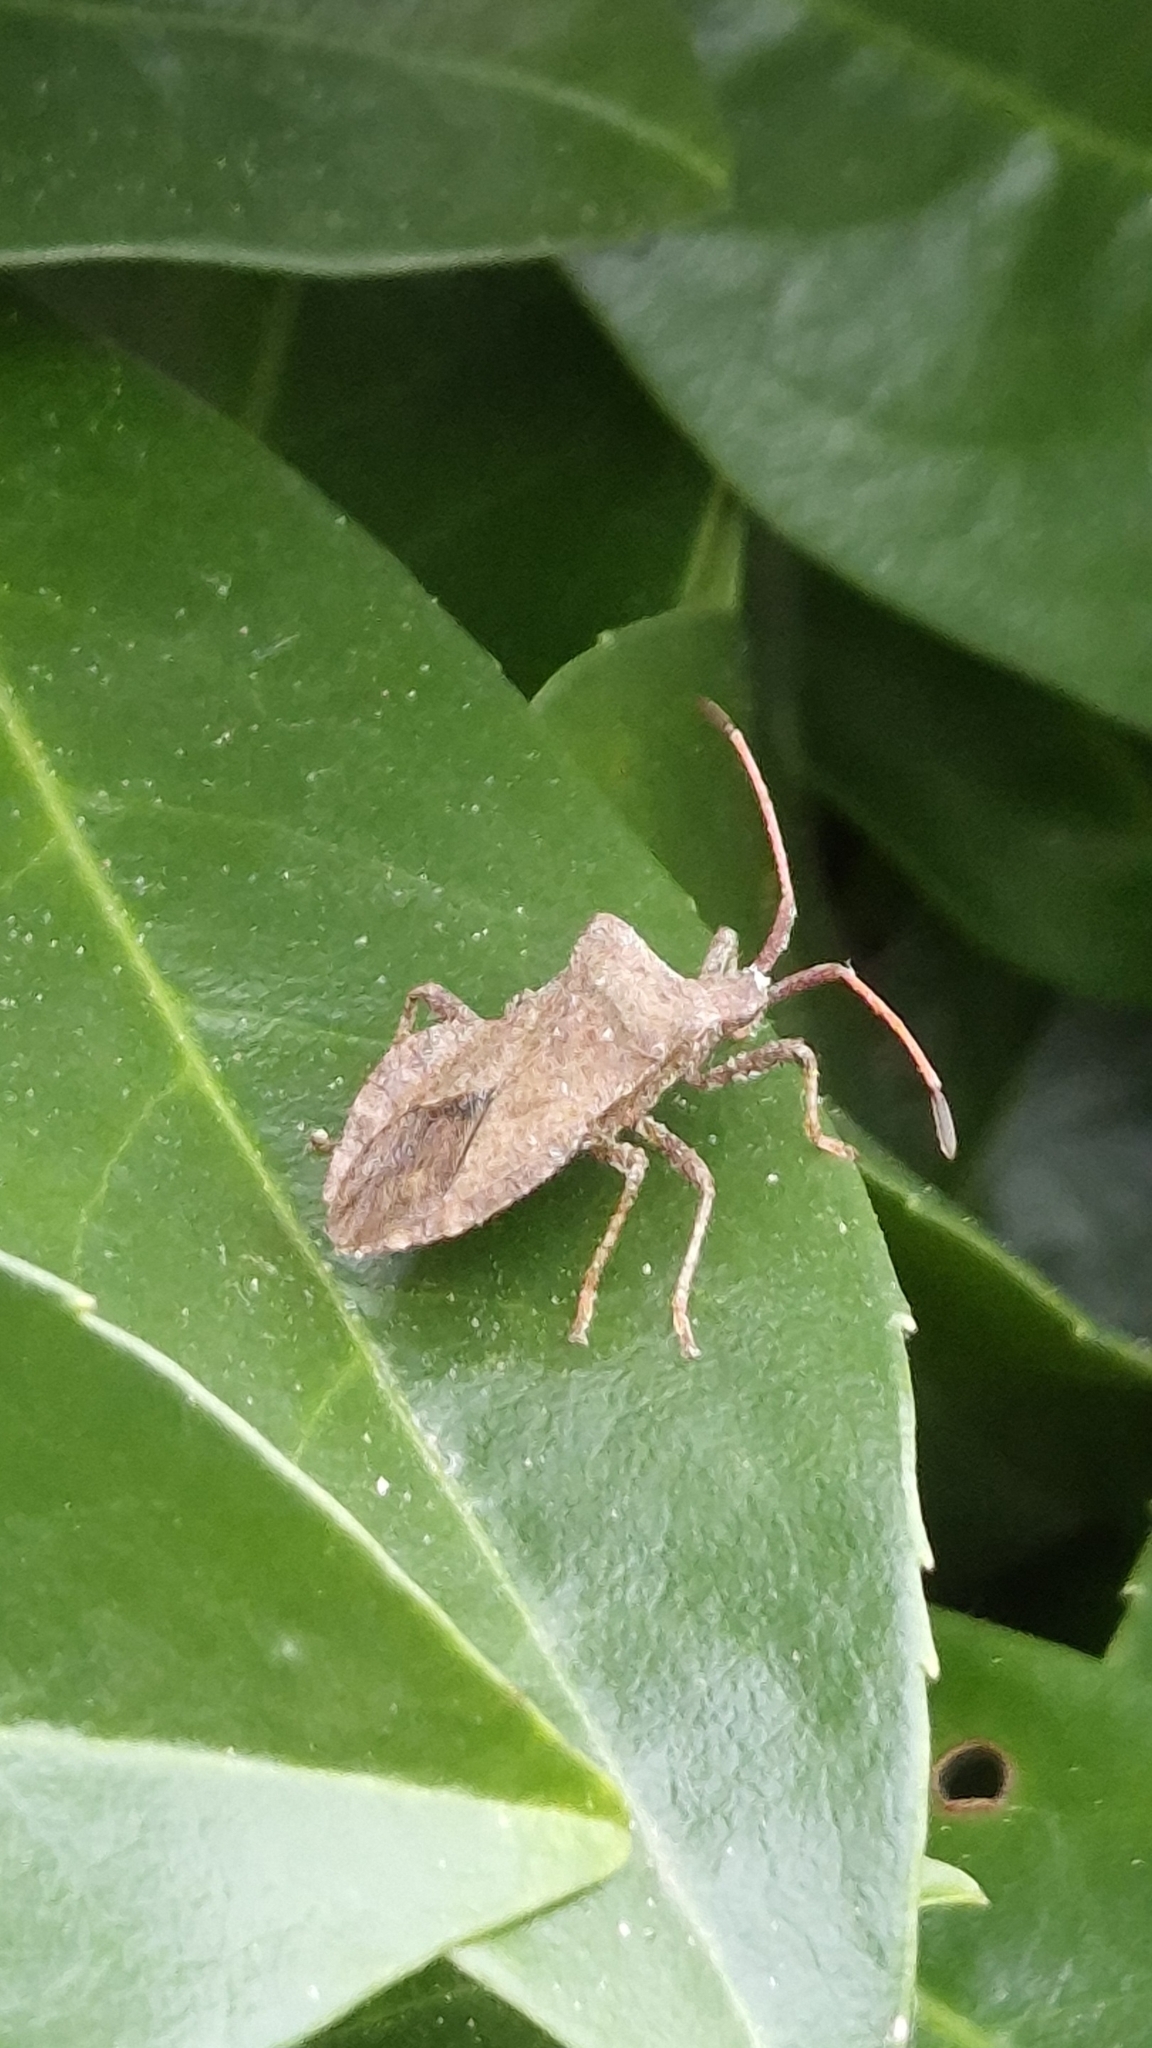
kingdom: Animalia
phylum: Arthropoda
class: Insecta
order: Hemiptera
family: Coreidae
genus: Coreus
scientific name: Coreus marginatus
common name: Dock bug
